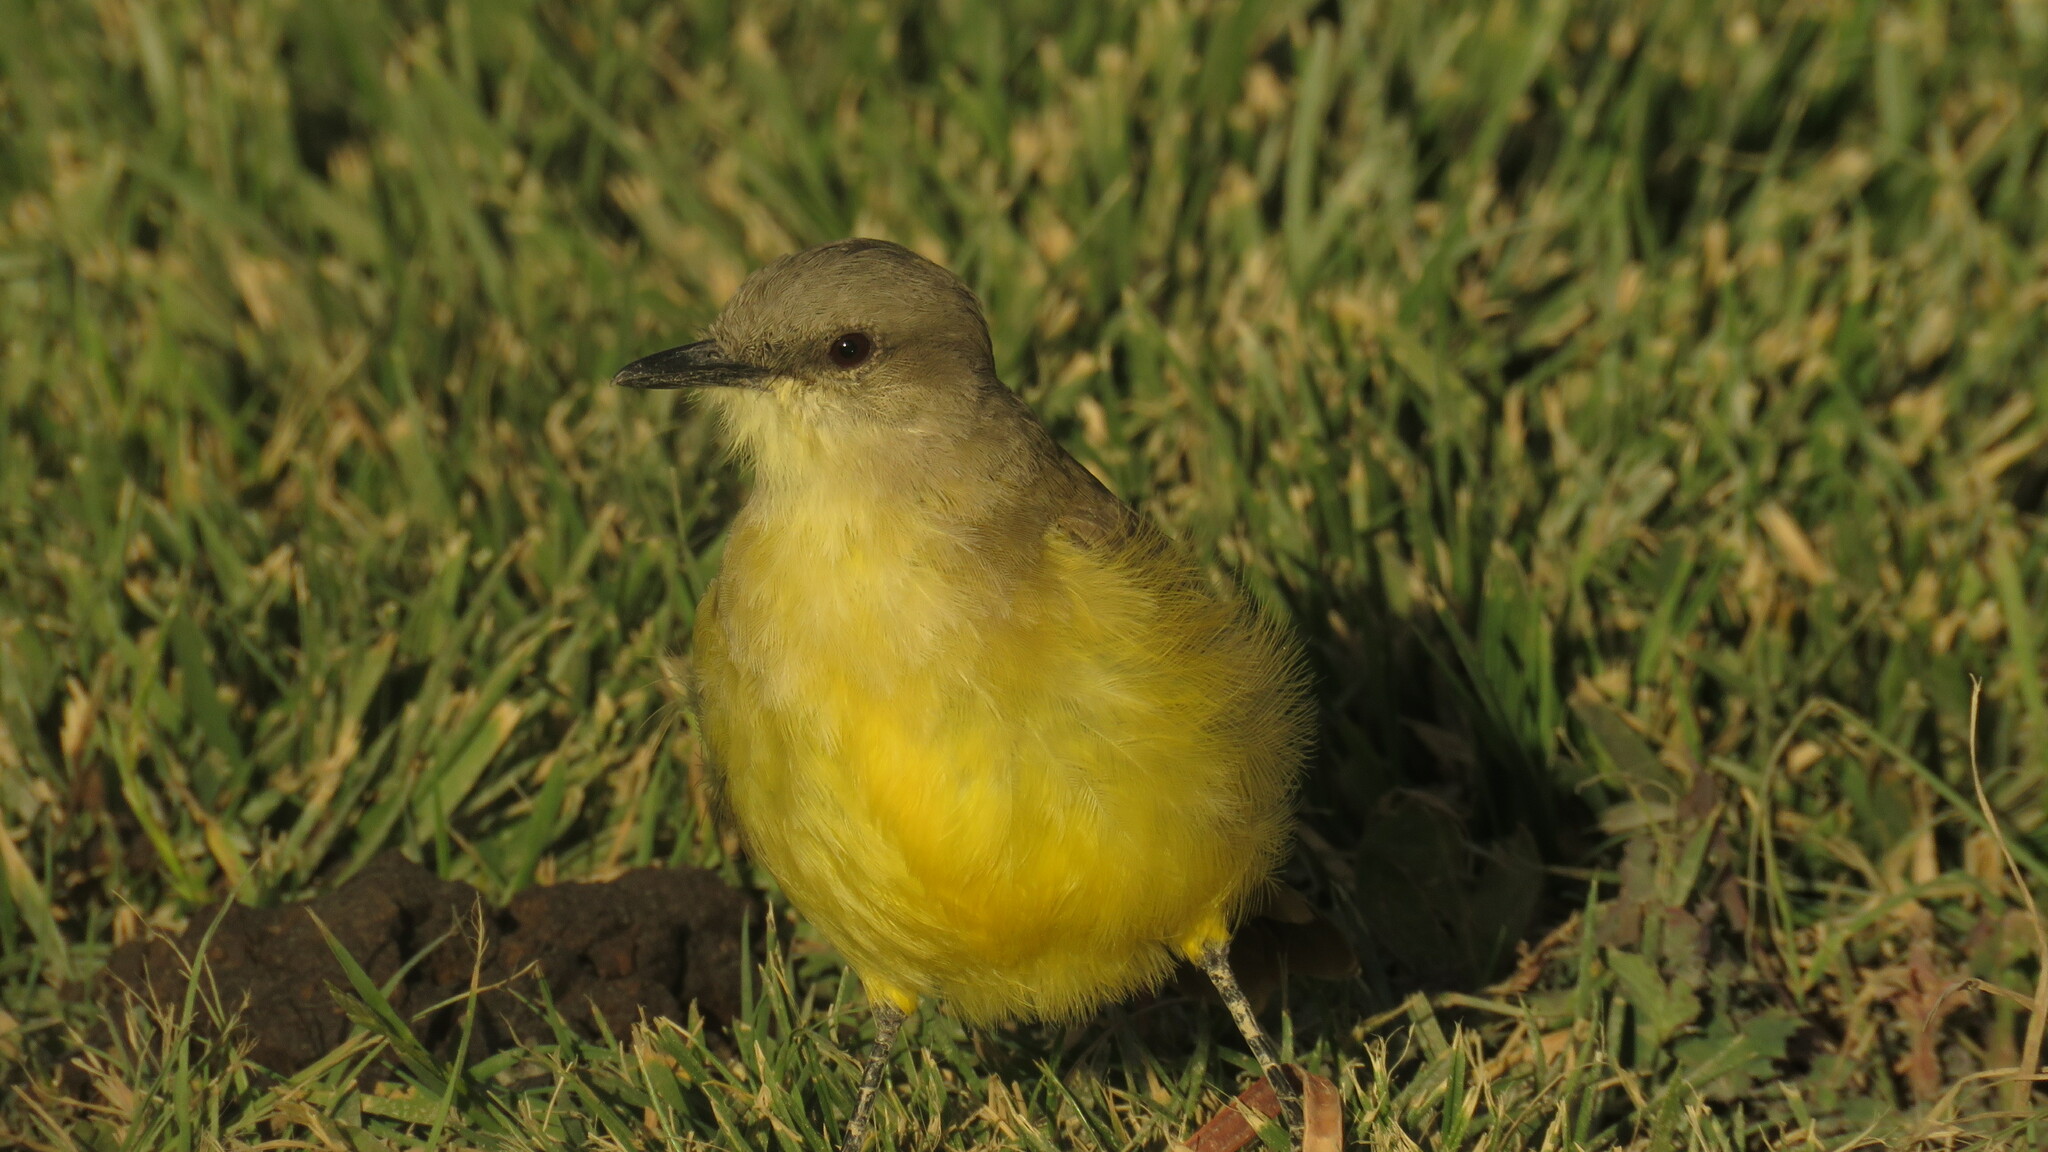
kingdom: Animalia
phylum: Chordata
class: Aves
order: Passeriformes
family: Tyrannidae
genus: Machetornis
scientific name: Machetornis rixosa
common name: Cattle tyrant
